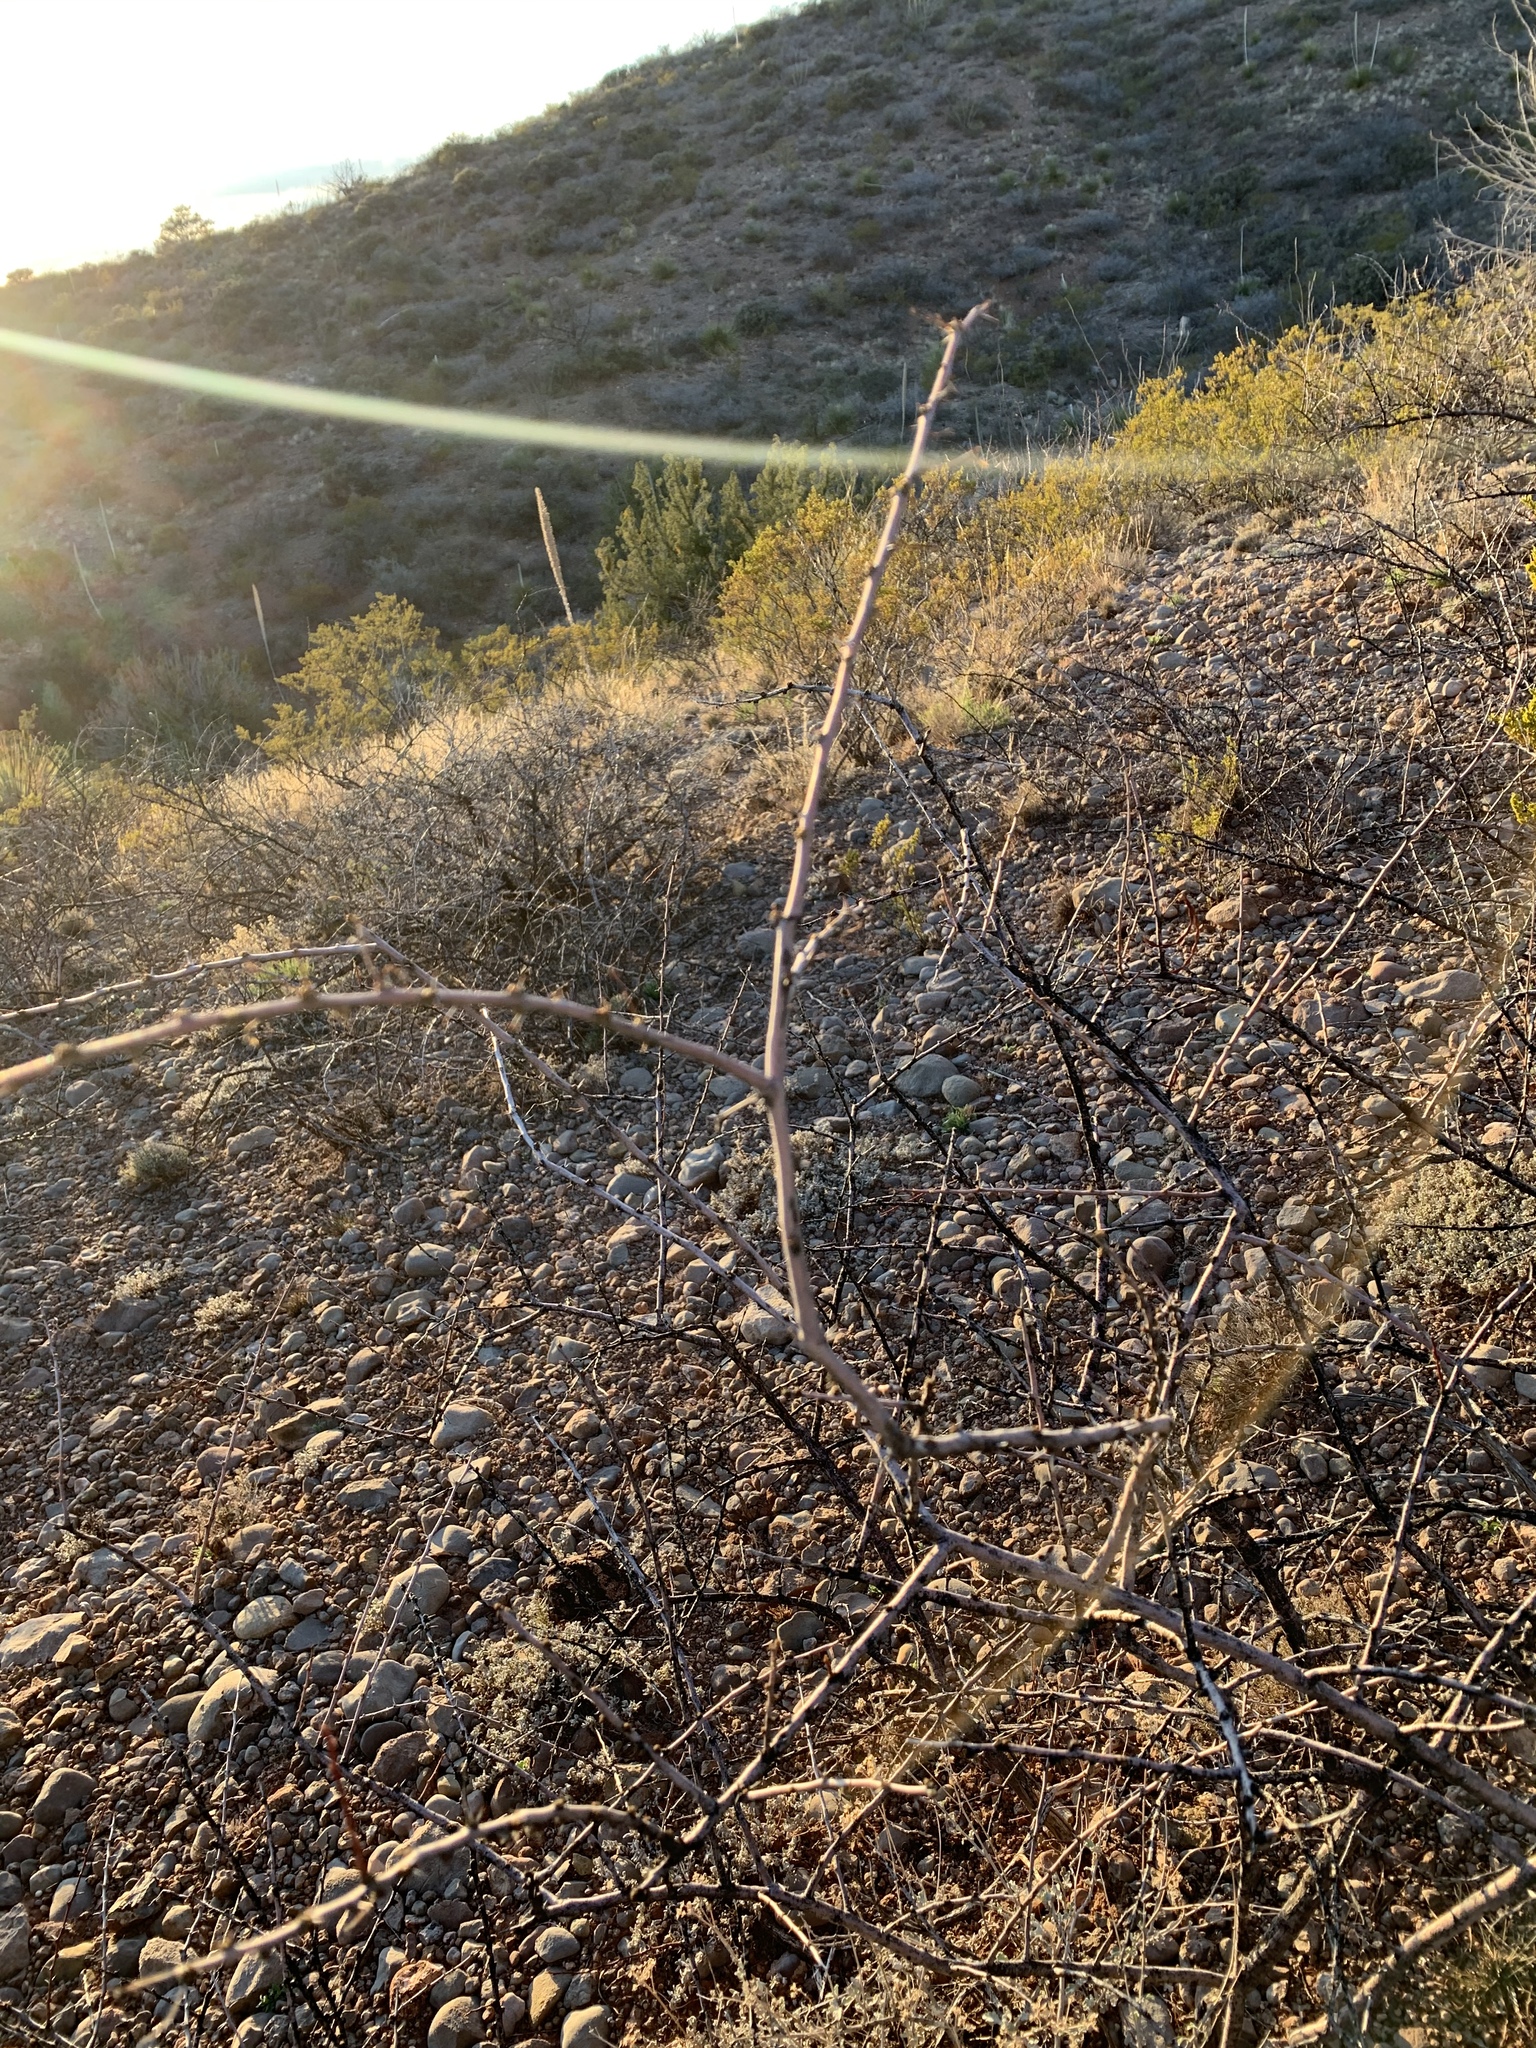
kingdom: Plantae
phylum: Tracheophyta
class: Magnoliopsida
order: Fabales
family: Fabaceae
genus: Vachellia
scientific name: Vachellia constricta
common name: Mescat acacia
